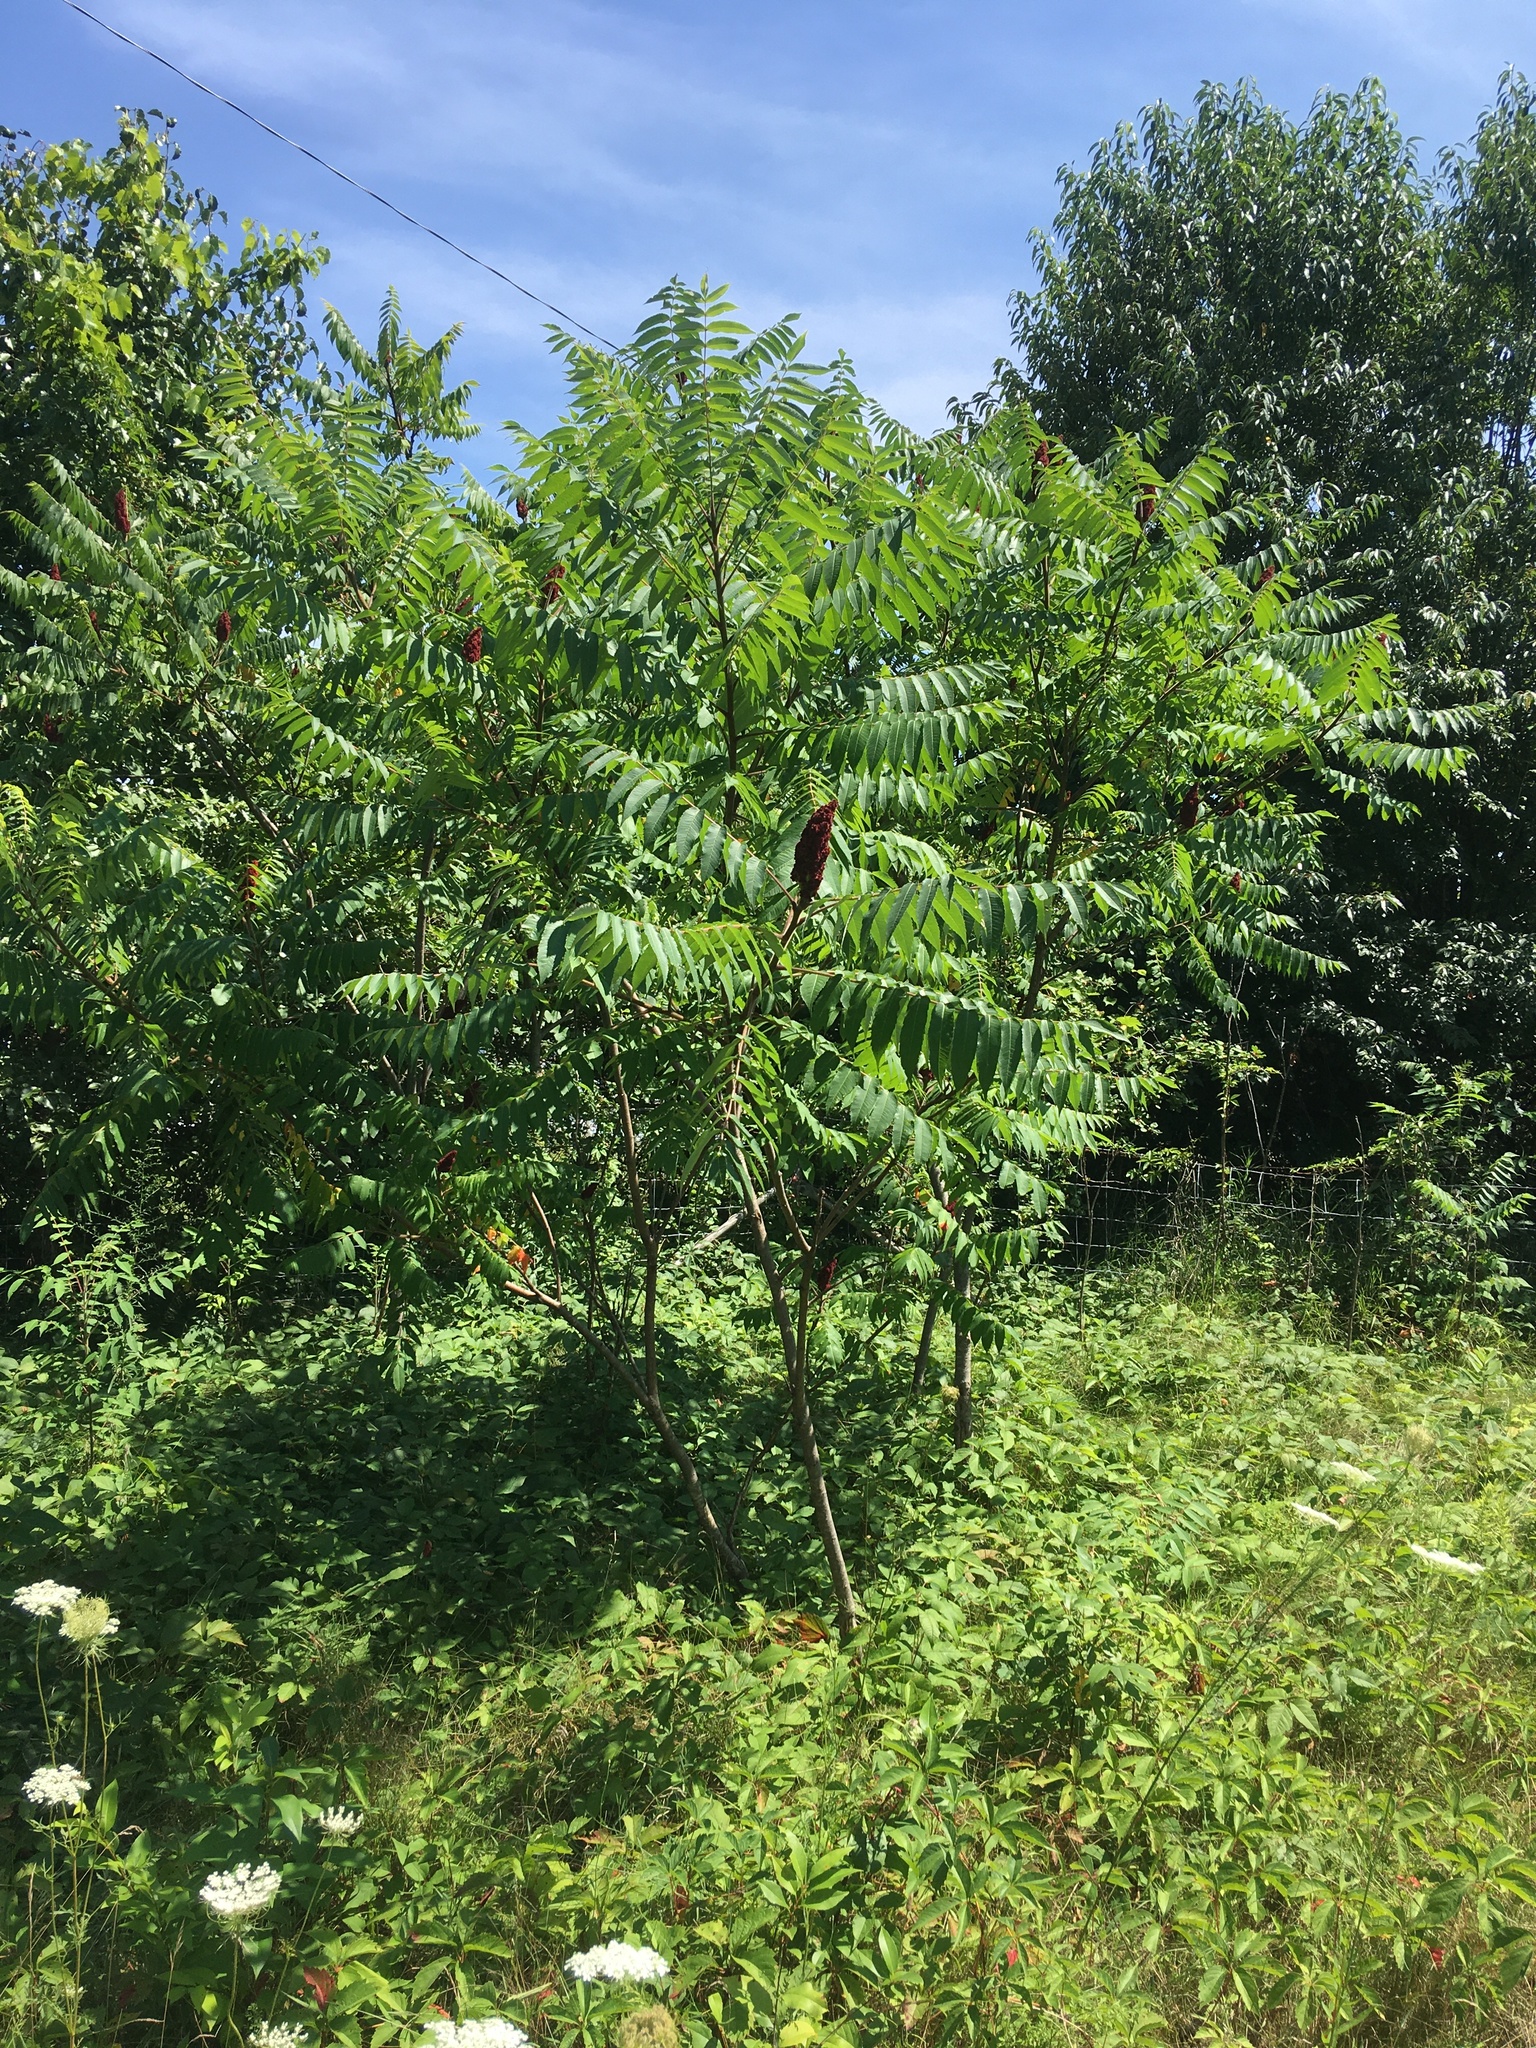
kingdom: Plantae
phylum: Tracheophyta
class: Magnoliopsida
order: Sapindales
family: Anacardiaceae
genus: Rhus
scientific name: Rhus typhina
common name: Staghorn sumac
